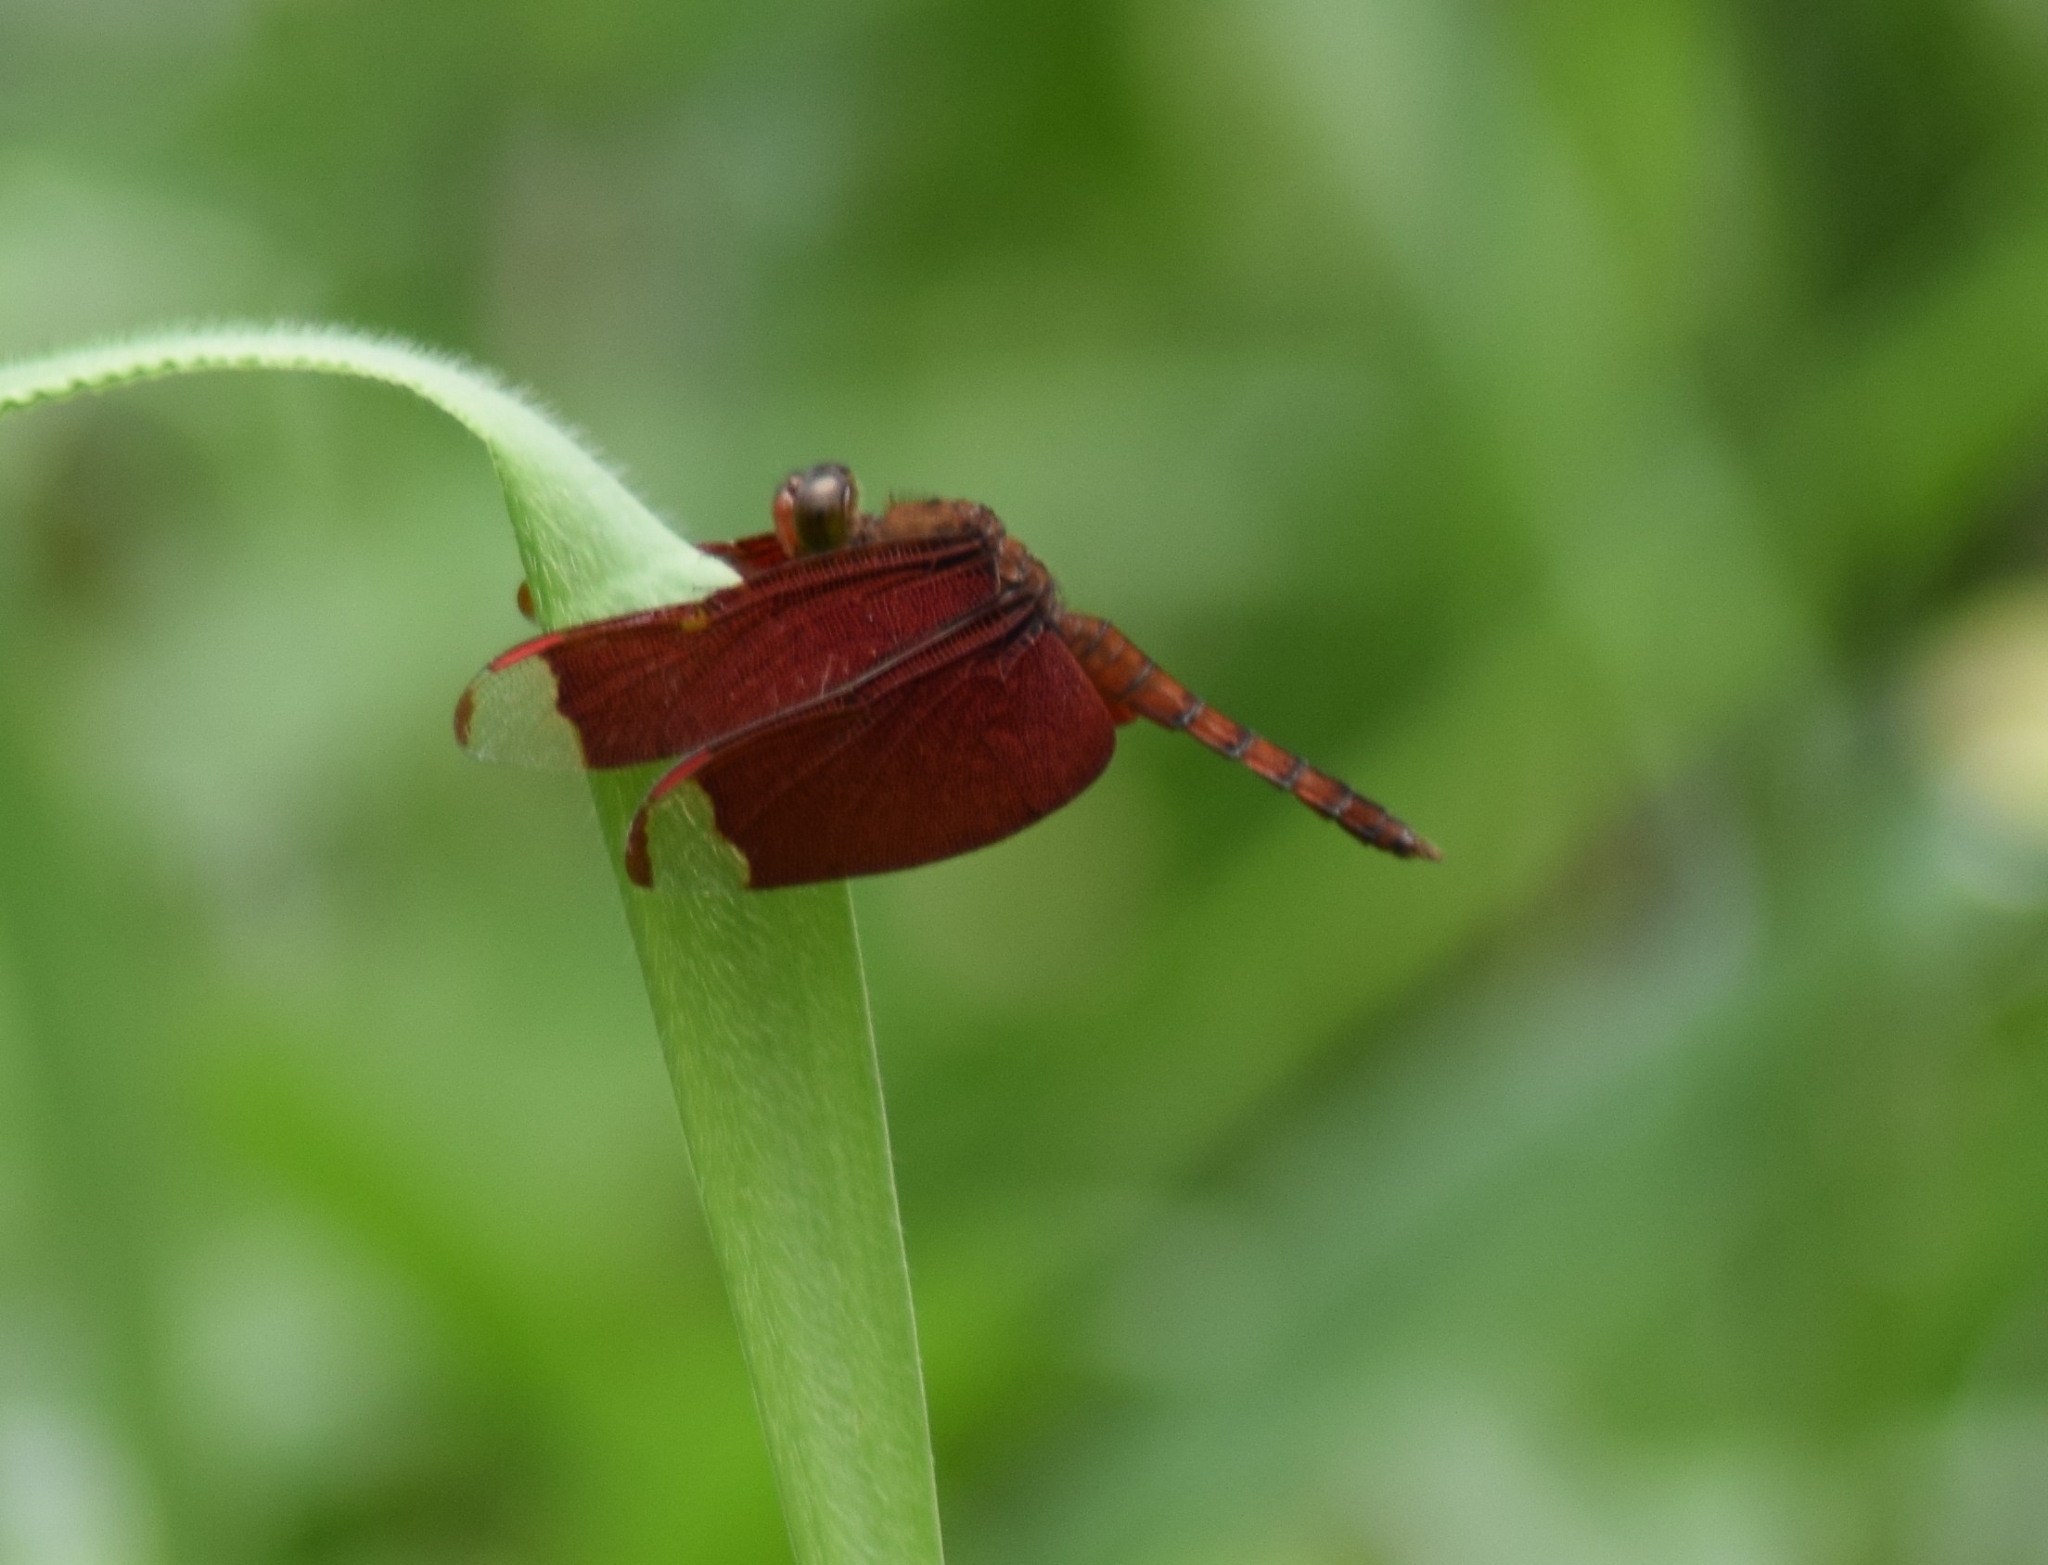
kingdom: Animalia
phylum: Arthropoda
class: Insecta
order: Odonata
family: Libellulidae
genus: Neurothemis
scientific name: Neurothemis fulvia
